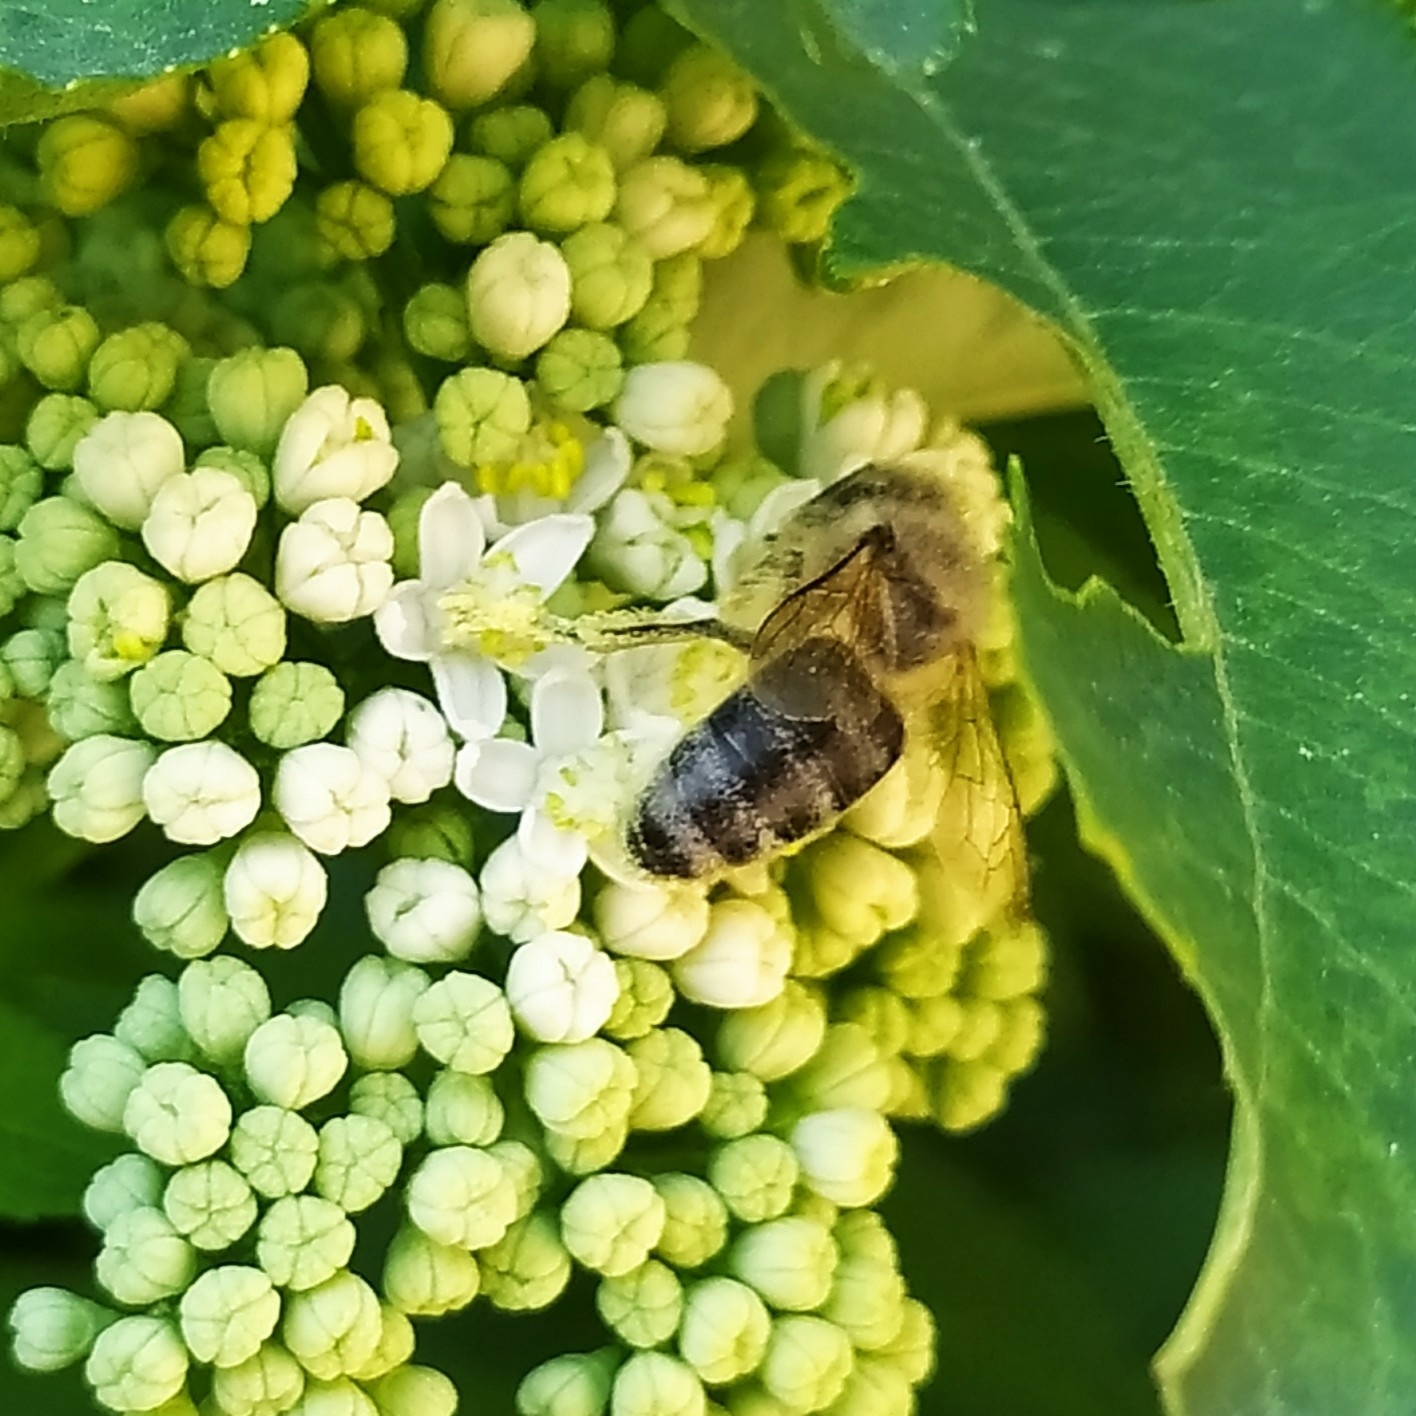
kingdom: Animalia
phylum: Arthropoda
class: Insecta
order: Hymenoptera
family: Apidae
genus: Apis
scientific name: Apis mellifera
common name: Honey bee
